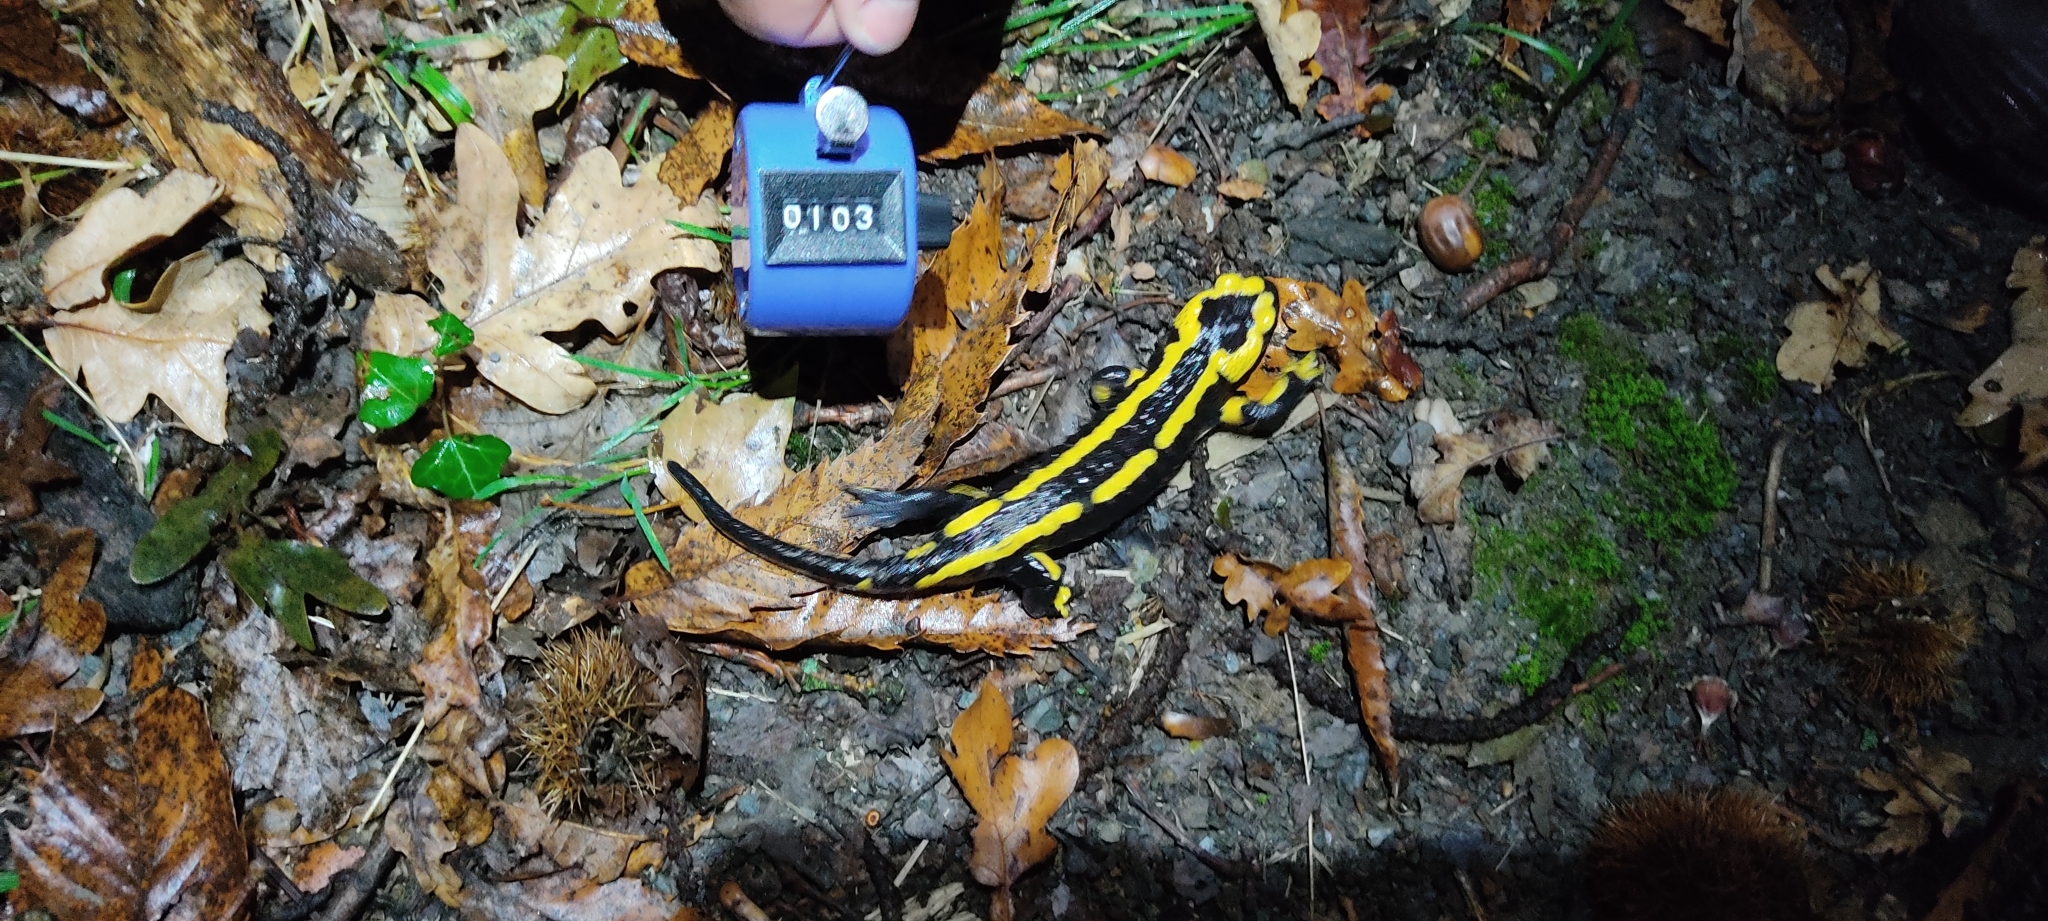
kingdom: Animalia
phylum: Chordata
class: Amphibia
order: Caudata
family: Salamandridae
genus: Salamandra
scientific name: Salamandra salamandra
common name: Fire salamander
